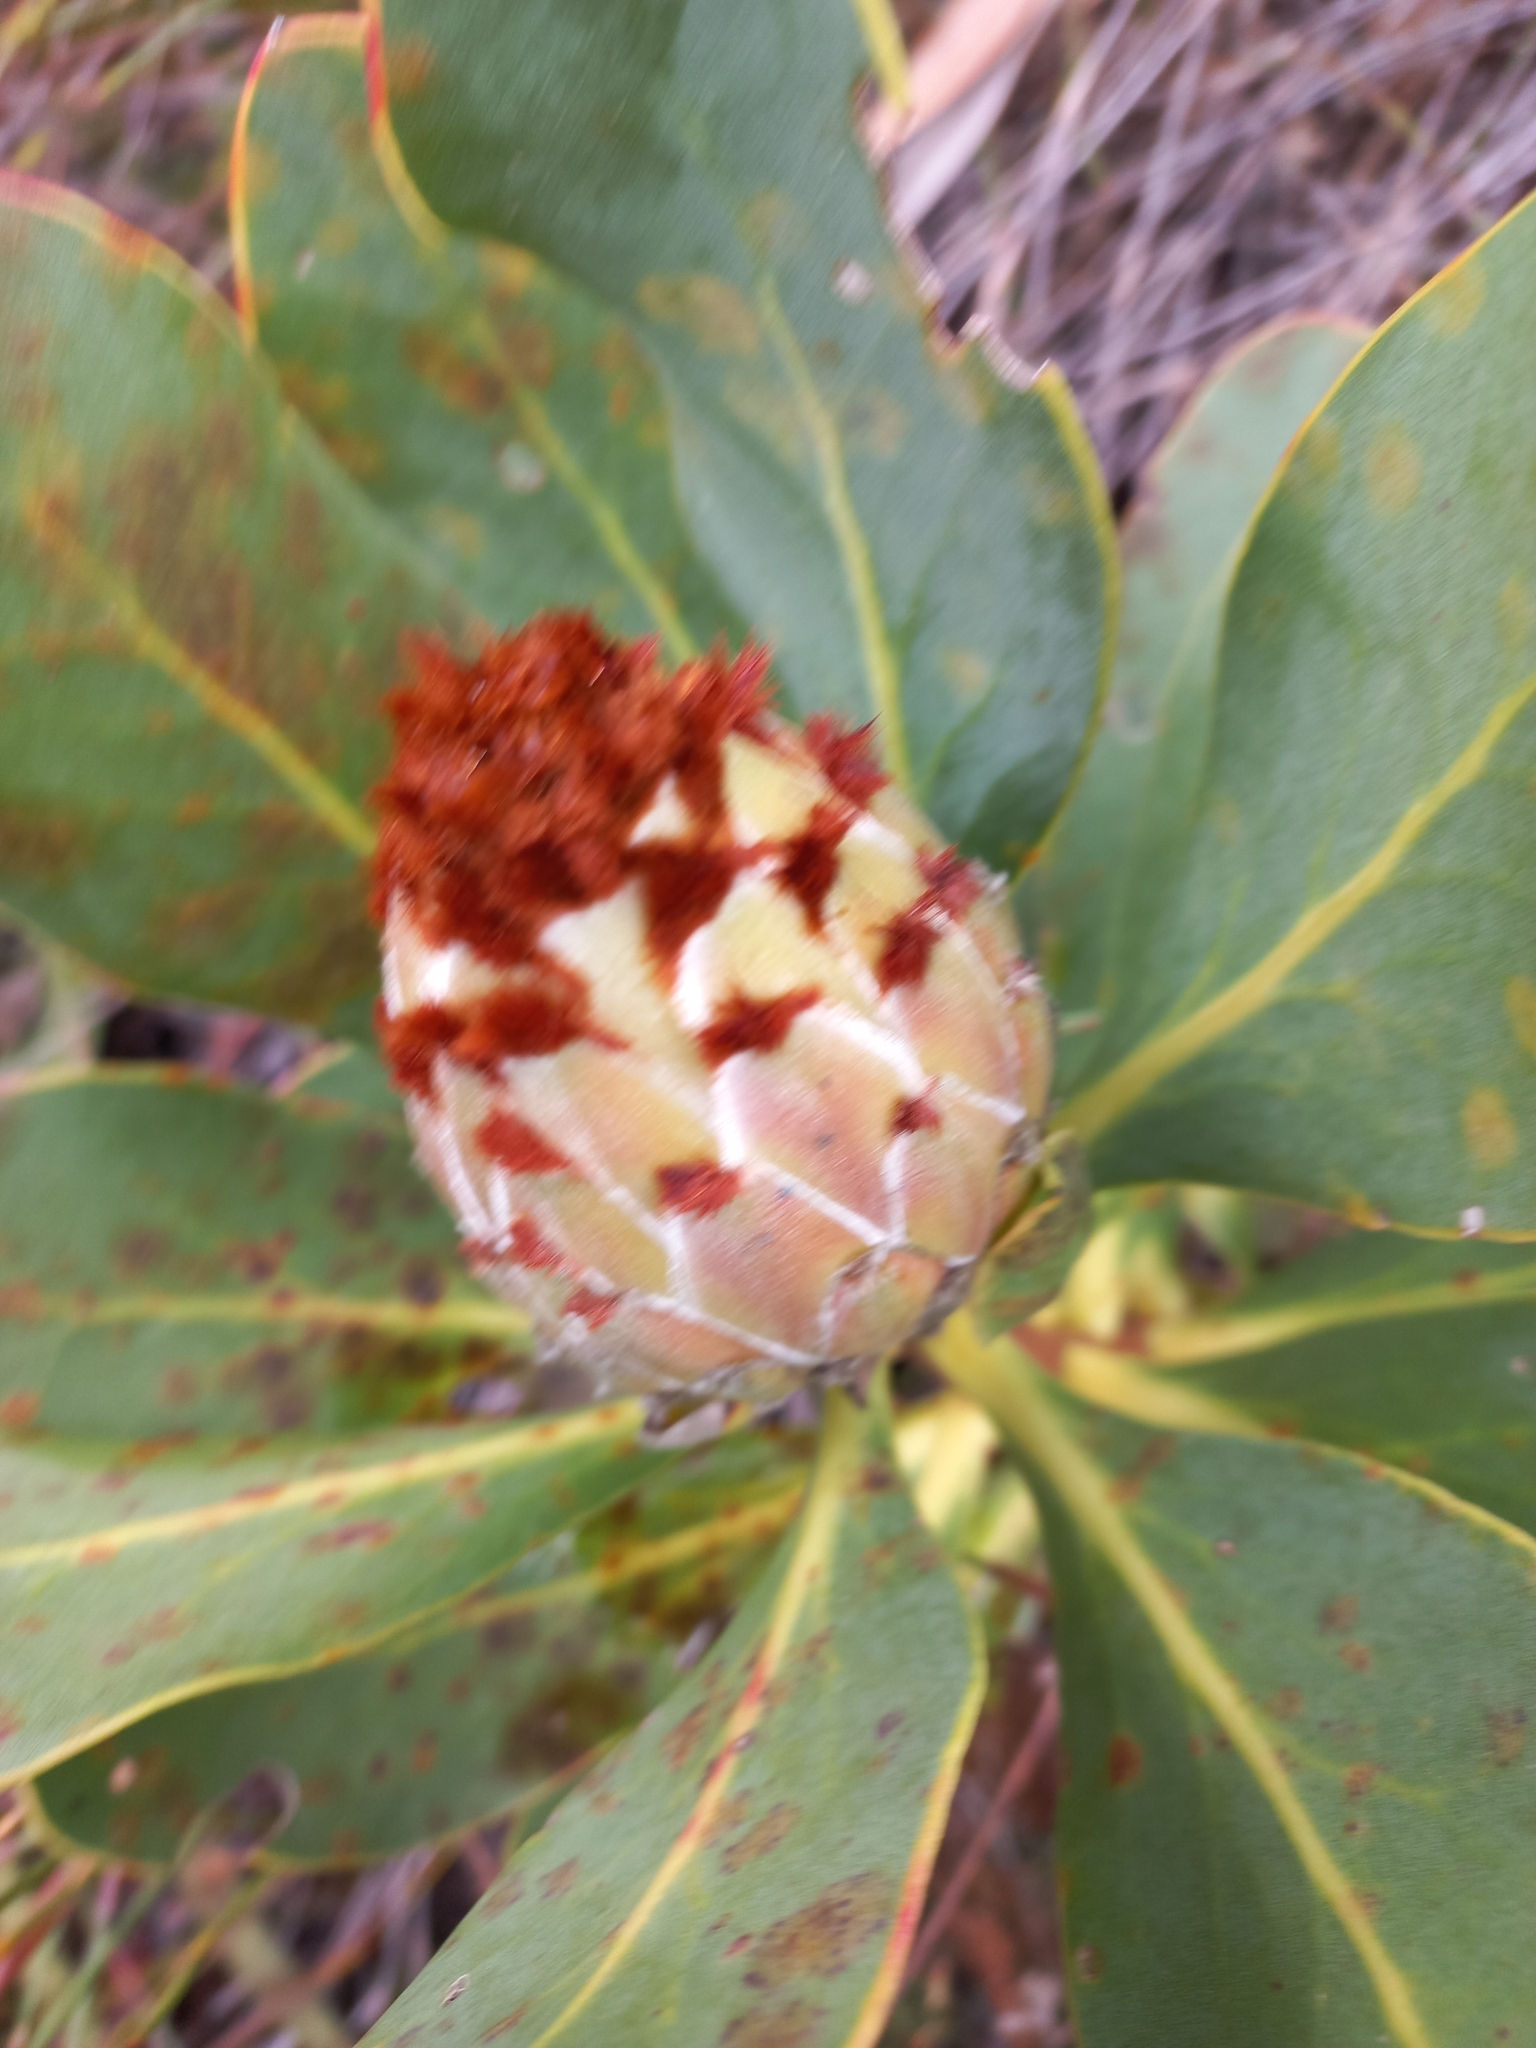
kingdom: Plantae
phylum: Tracheophyta
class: Magnoliopsida
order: Proteales
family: Proteaceae
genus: Protea
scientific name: Protea speciosa
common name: Brown-beard sugarbush
